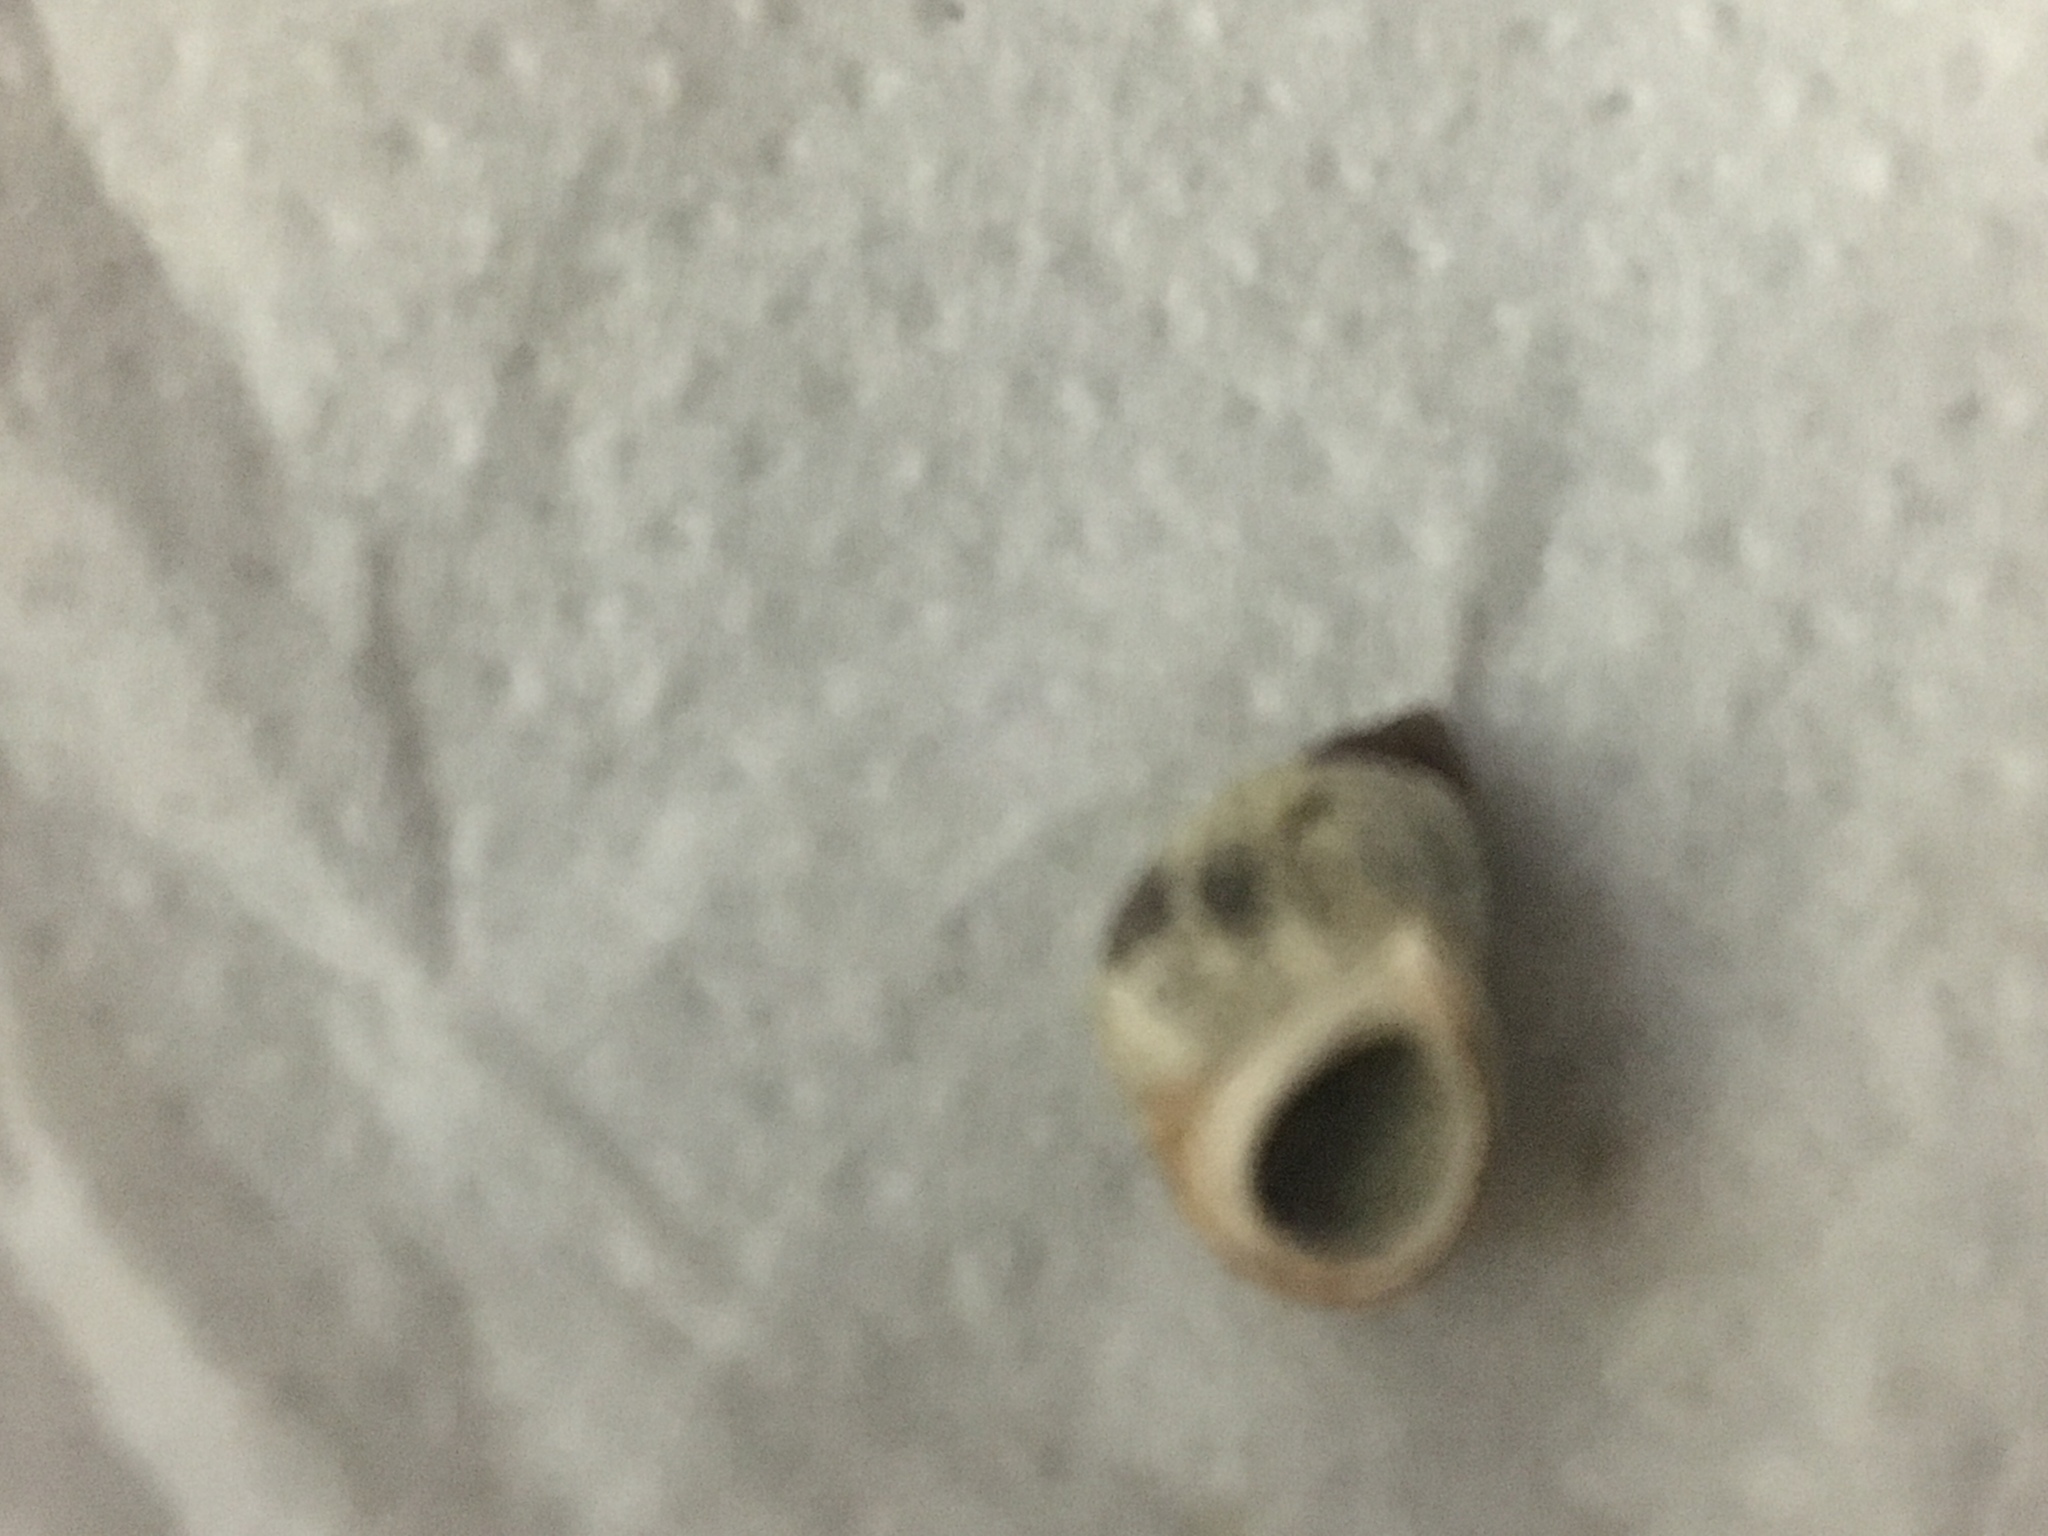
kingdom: Animalia
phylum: Mollusca
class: Gastropoda
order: Littorinimorpha
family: Littorinidae
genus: Littorina
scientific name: Littorina scutulata
